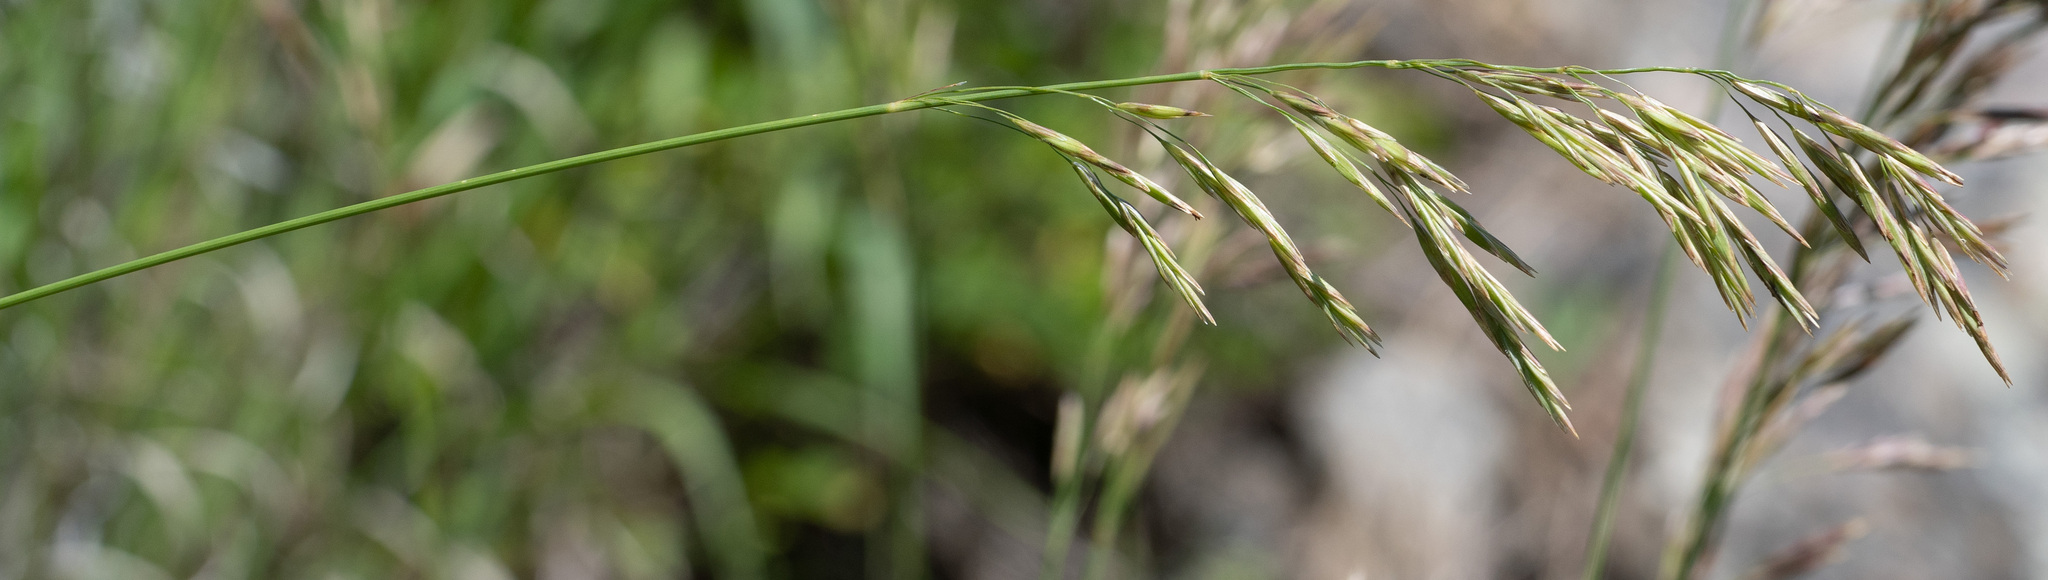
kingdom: Plantae
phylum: Tracheophyta
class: Liliopsida
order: Poales
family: Poaceae
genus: Bromus
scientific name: Bromus inermis
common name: Smooth brome
